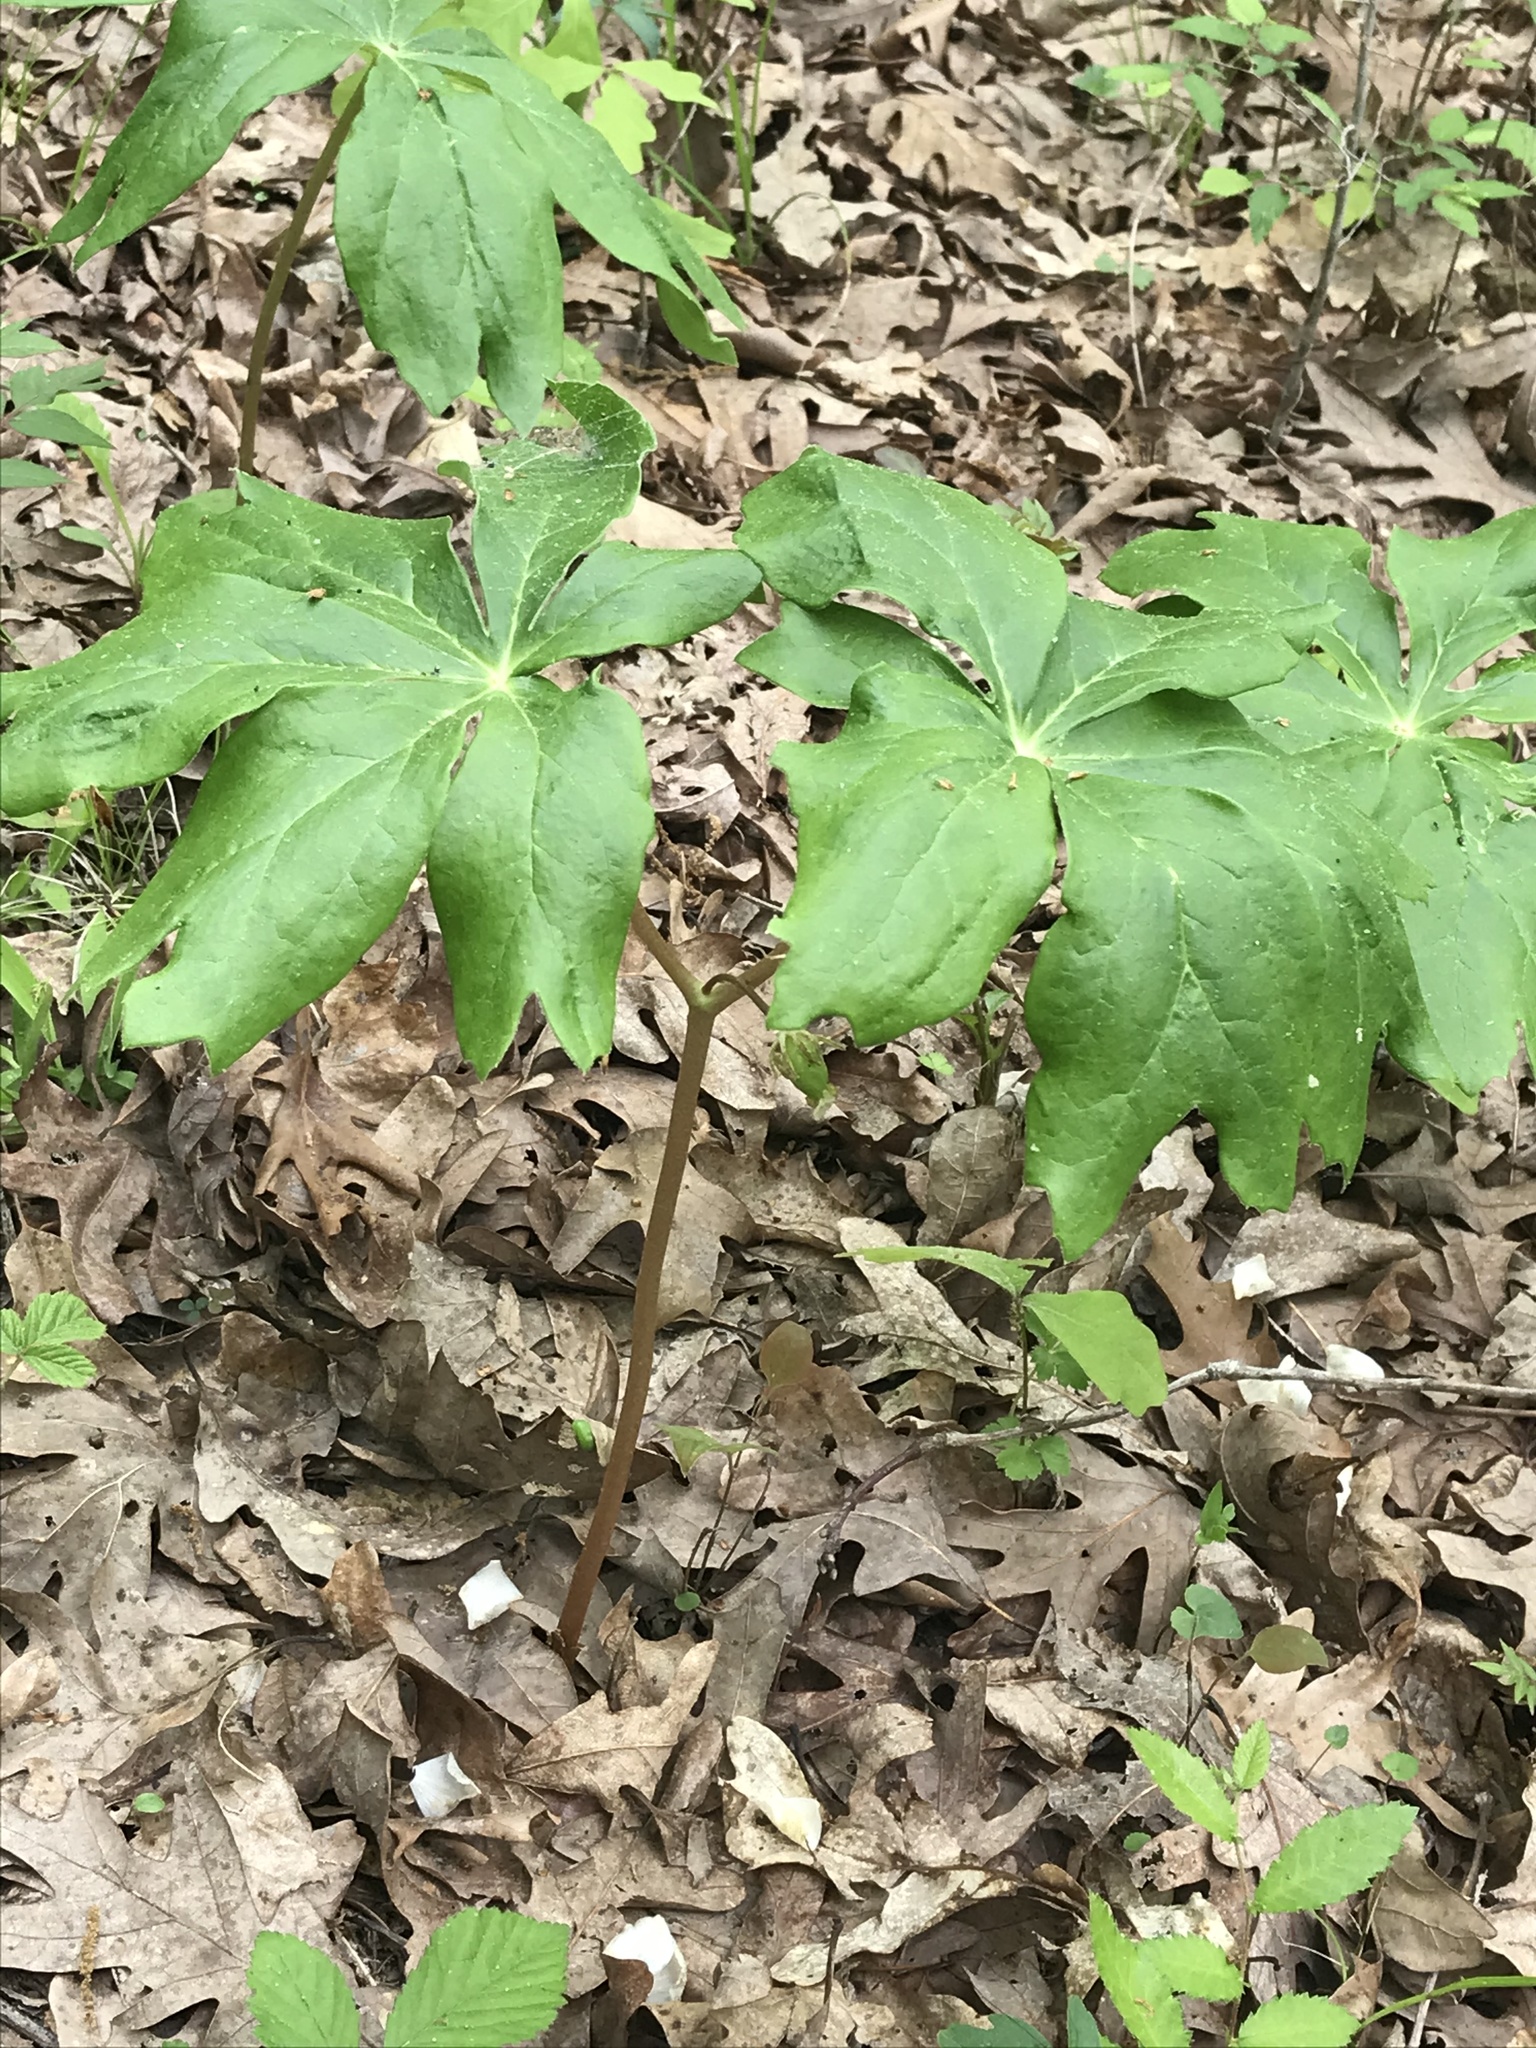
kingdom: Plantae
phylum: Tracheophyta
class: Magnoliopsida
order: Ranunculales
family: Berberidaceae
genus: Podophyllum
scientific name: Podophyllum peltatum
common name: Wild mandrake
